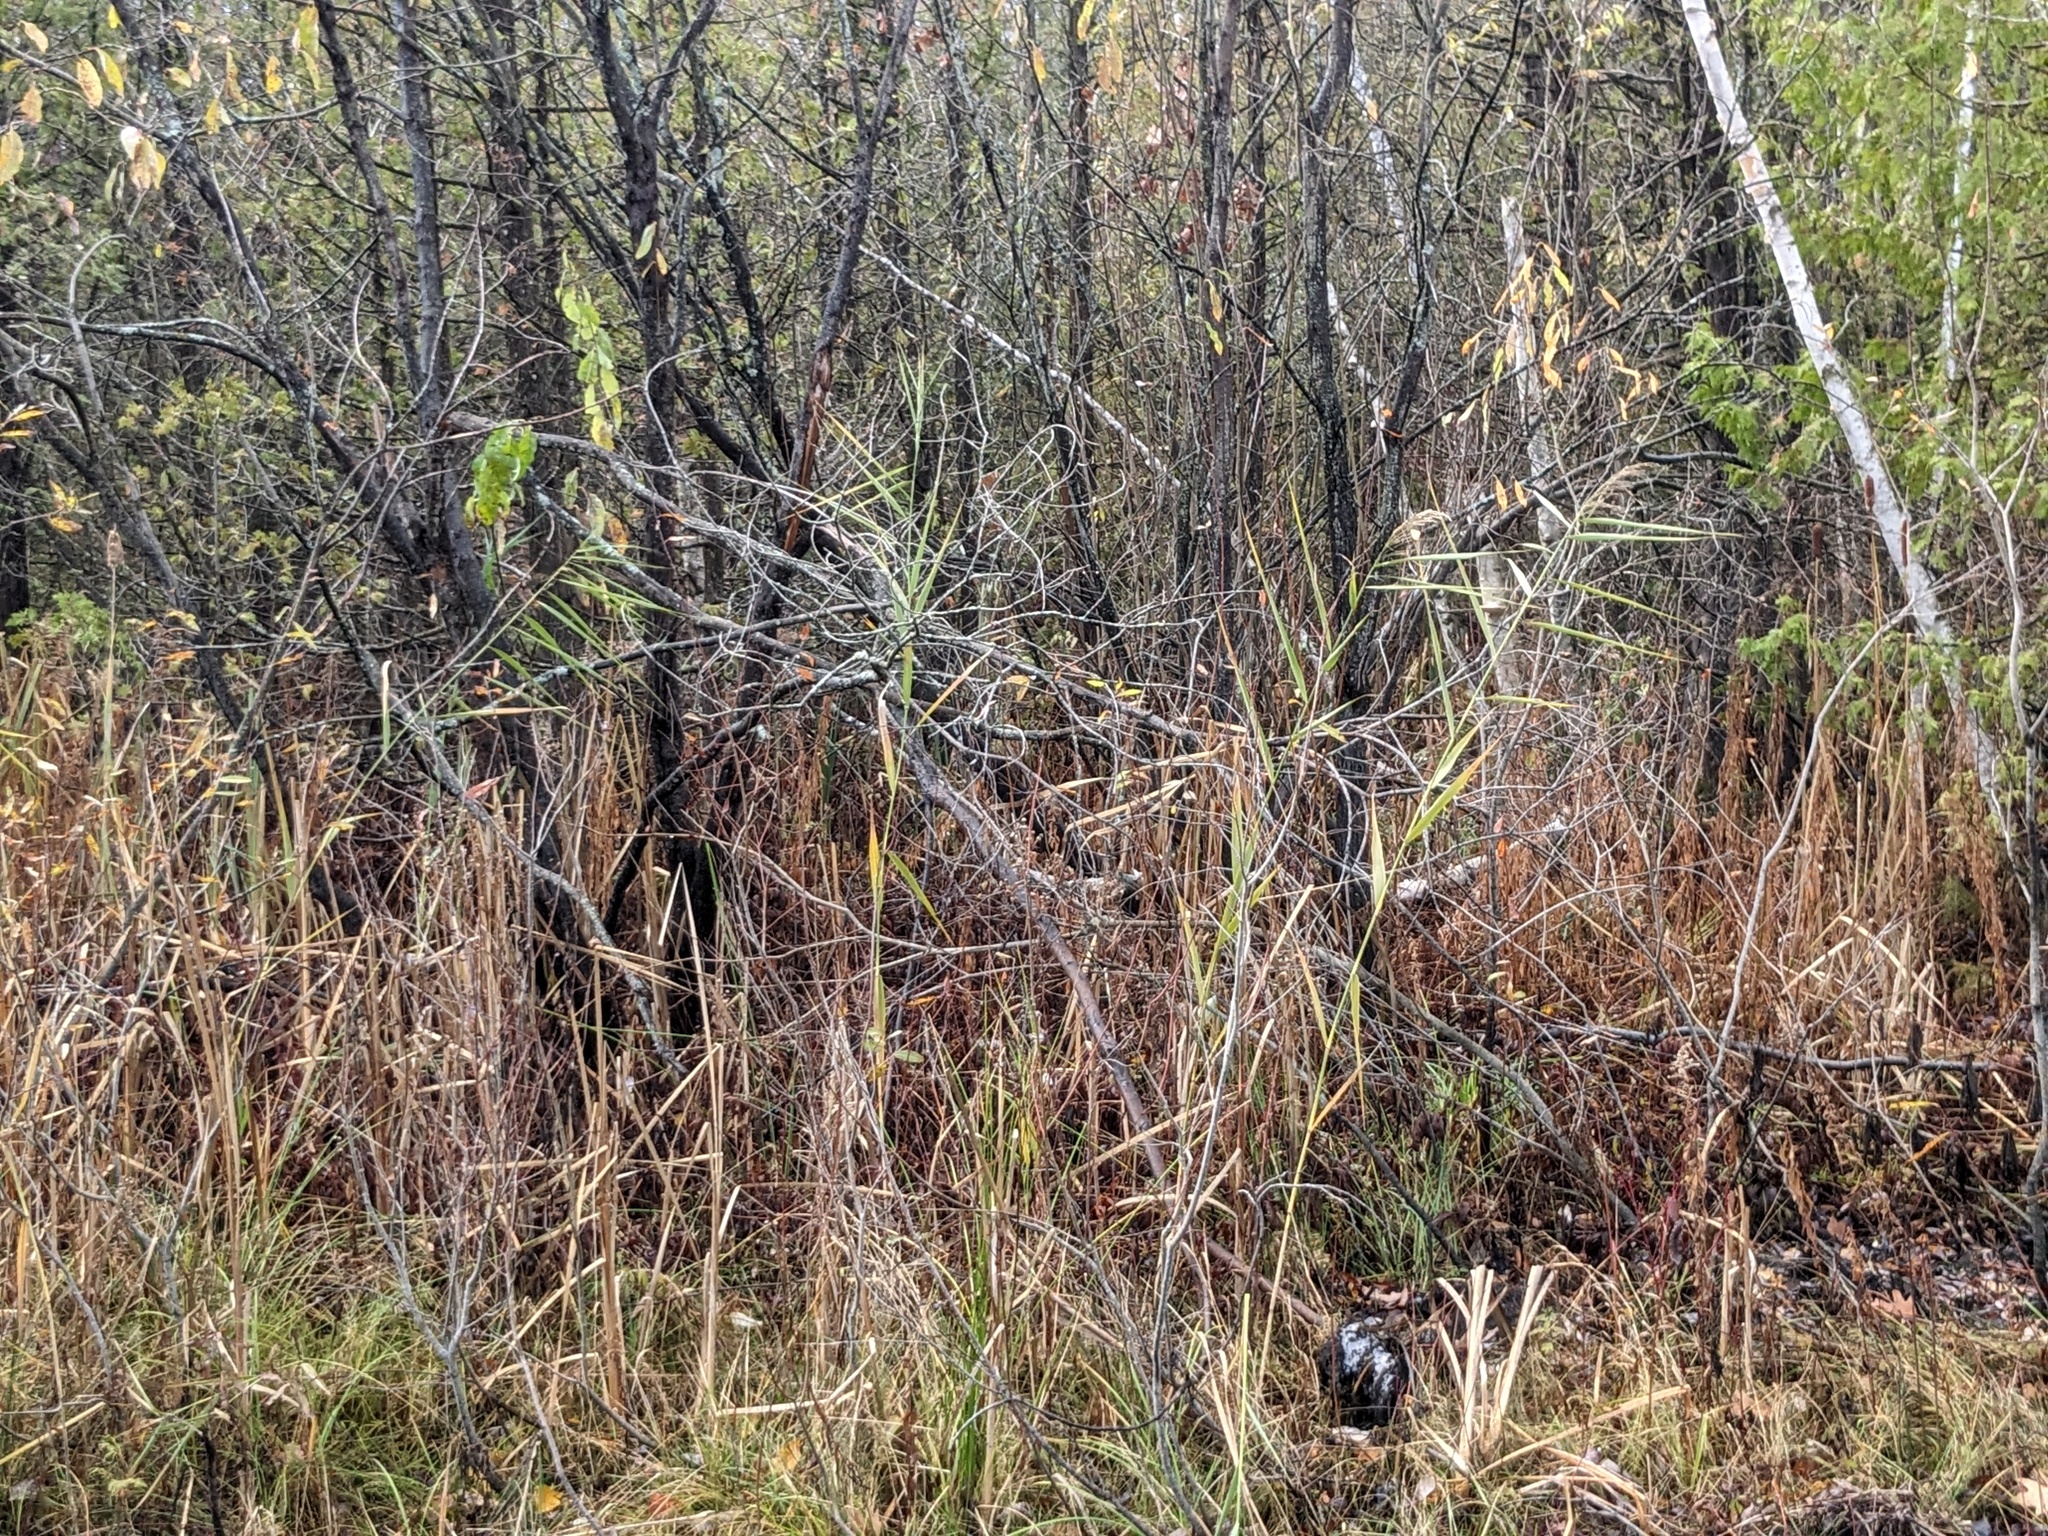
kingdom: Plantae
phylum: Tracheophyta
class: Liliopsida
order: Poales
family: Poaceae
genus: Phragmites
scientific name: Phragmites australis
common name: Common reed
